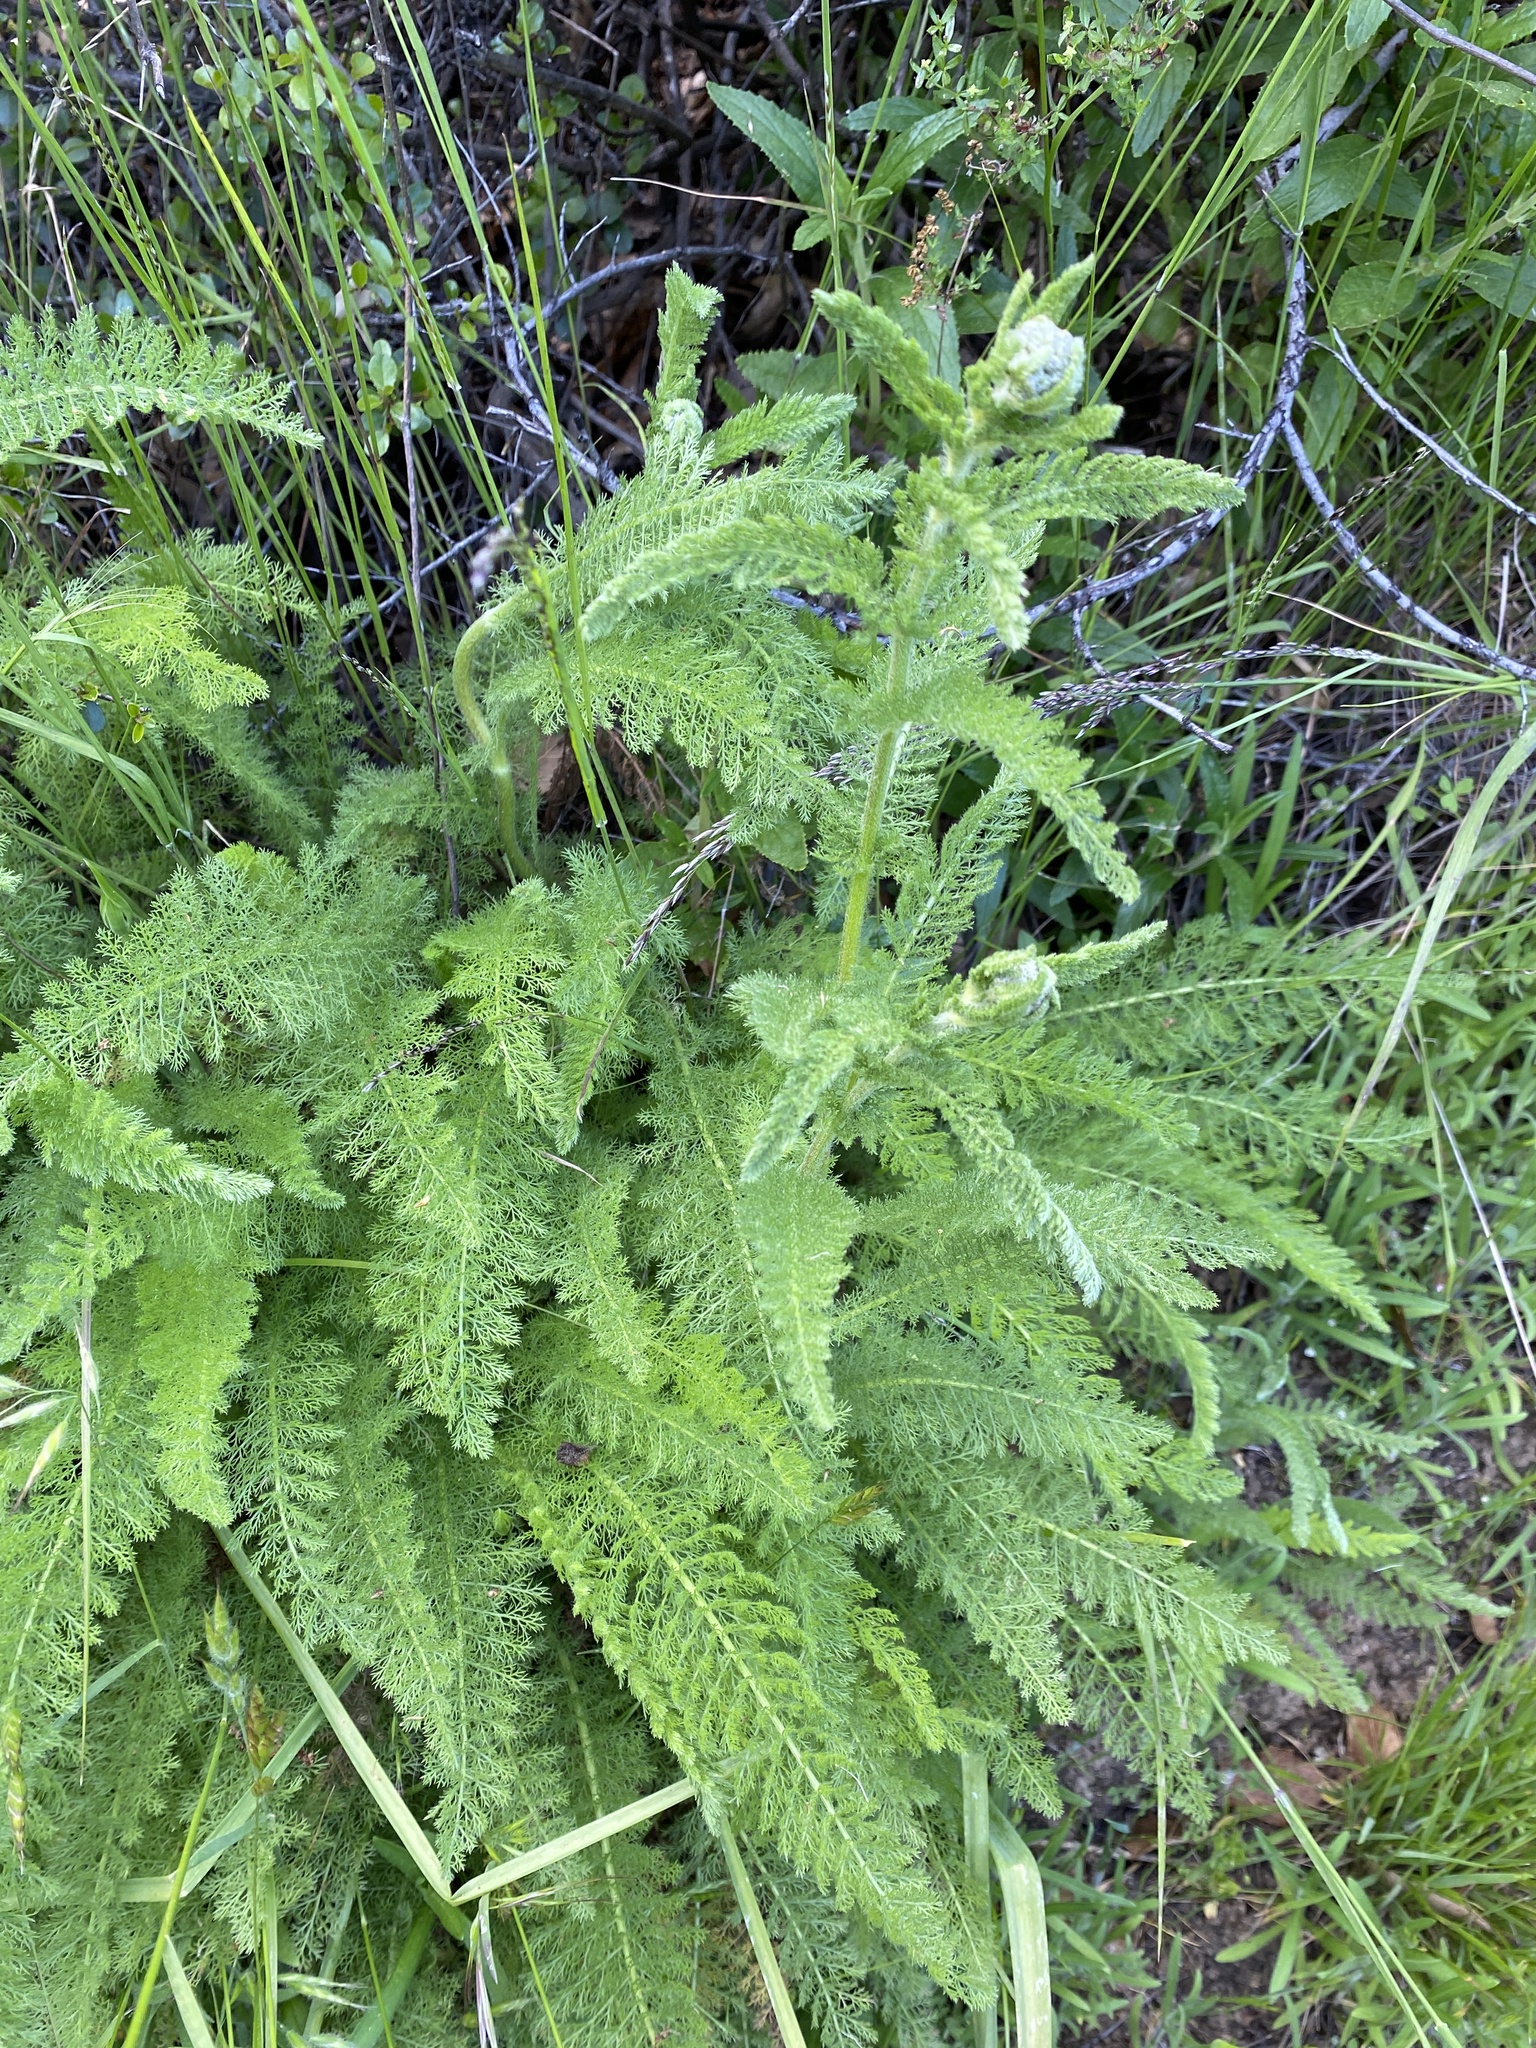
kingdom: Plantae
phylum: Tracheophyta
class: Magnoliopsida
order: Asterales
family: Asteraceae
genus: Achillea
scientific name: Achillea millefolium
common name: Yarrow
